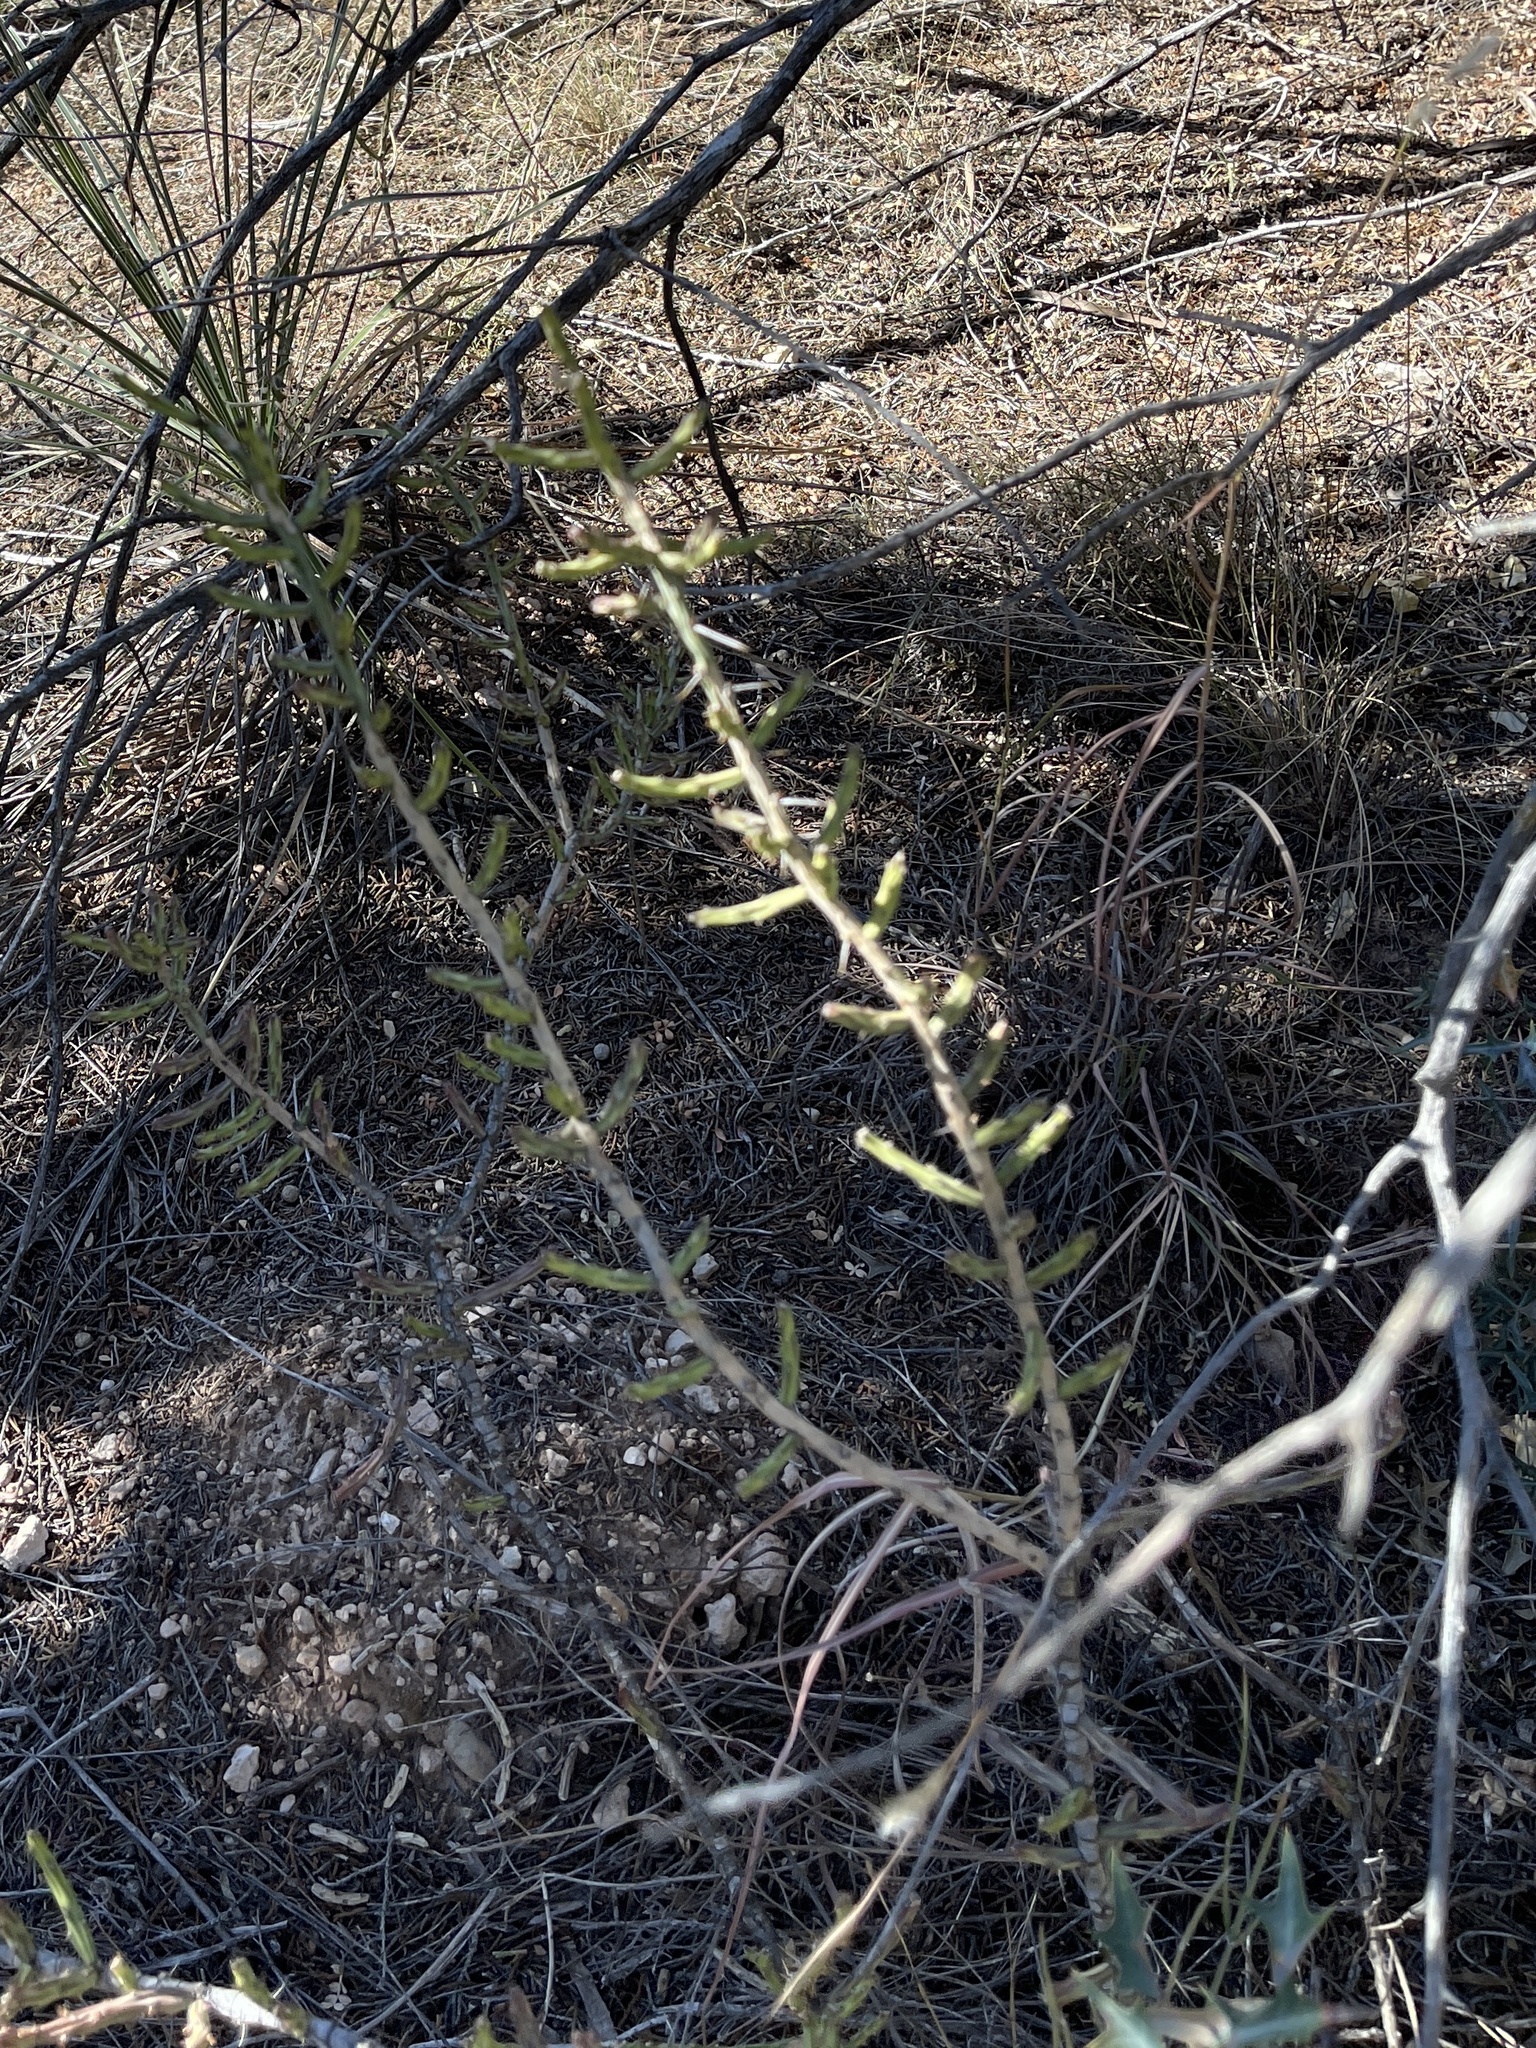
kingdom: Plantae
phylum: Tracheophyta
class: Magnoliopsida
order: Caryophyllales
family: Cactaceae
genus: Cylindropuntia
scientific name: Cylindropuntia leptocaulis
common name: Christmas cactus
